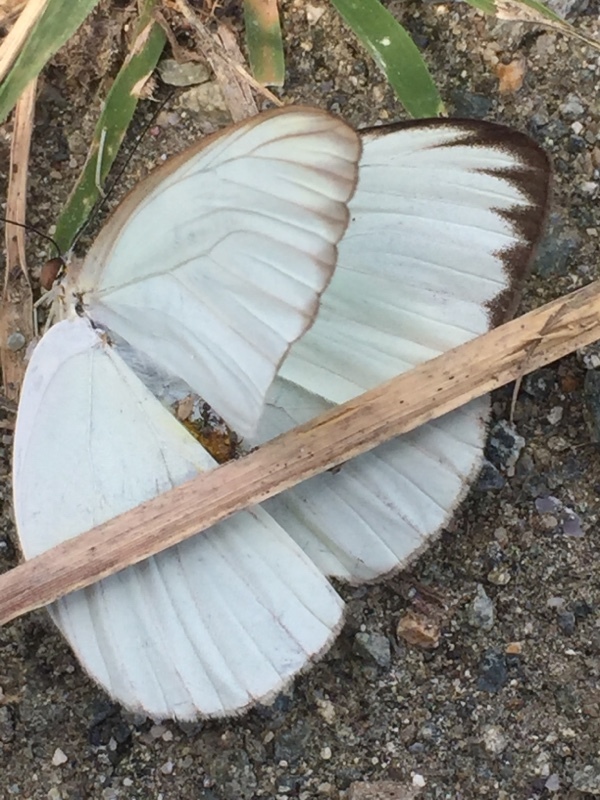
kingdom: Animalia
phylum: Arthropoda
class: Insecta
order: Lepidoptera
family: Pieridae
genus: Ascia
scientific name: Ascia monuste
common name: Great southern white
